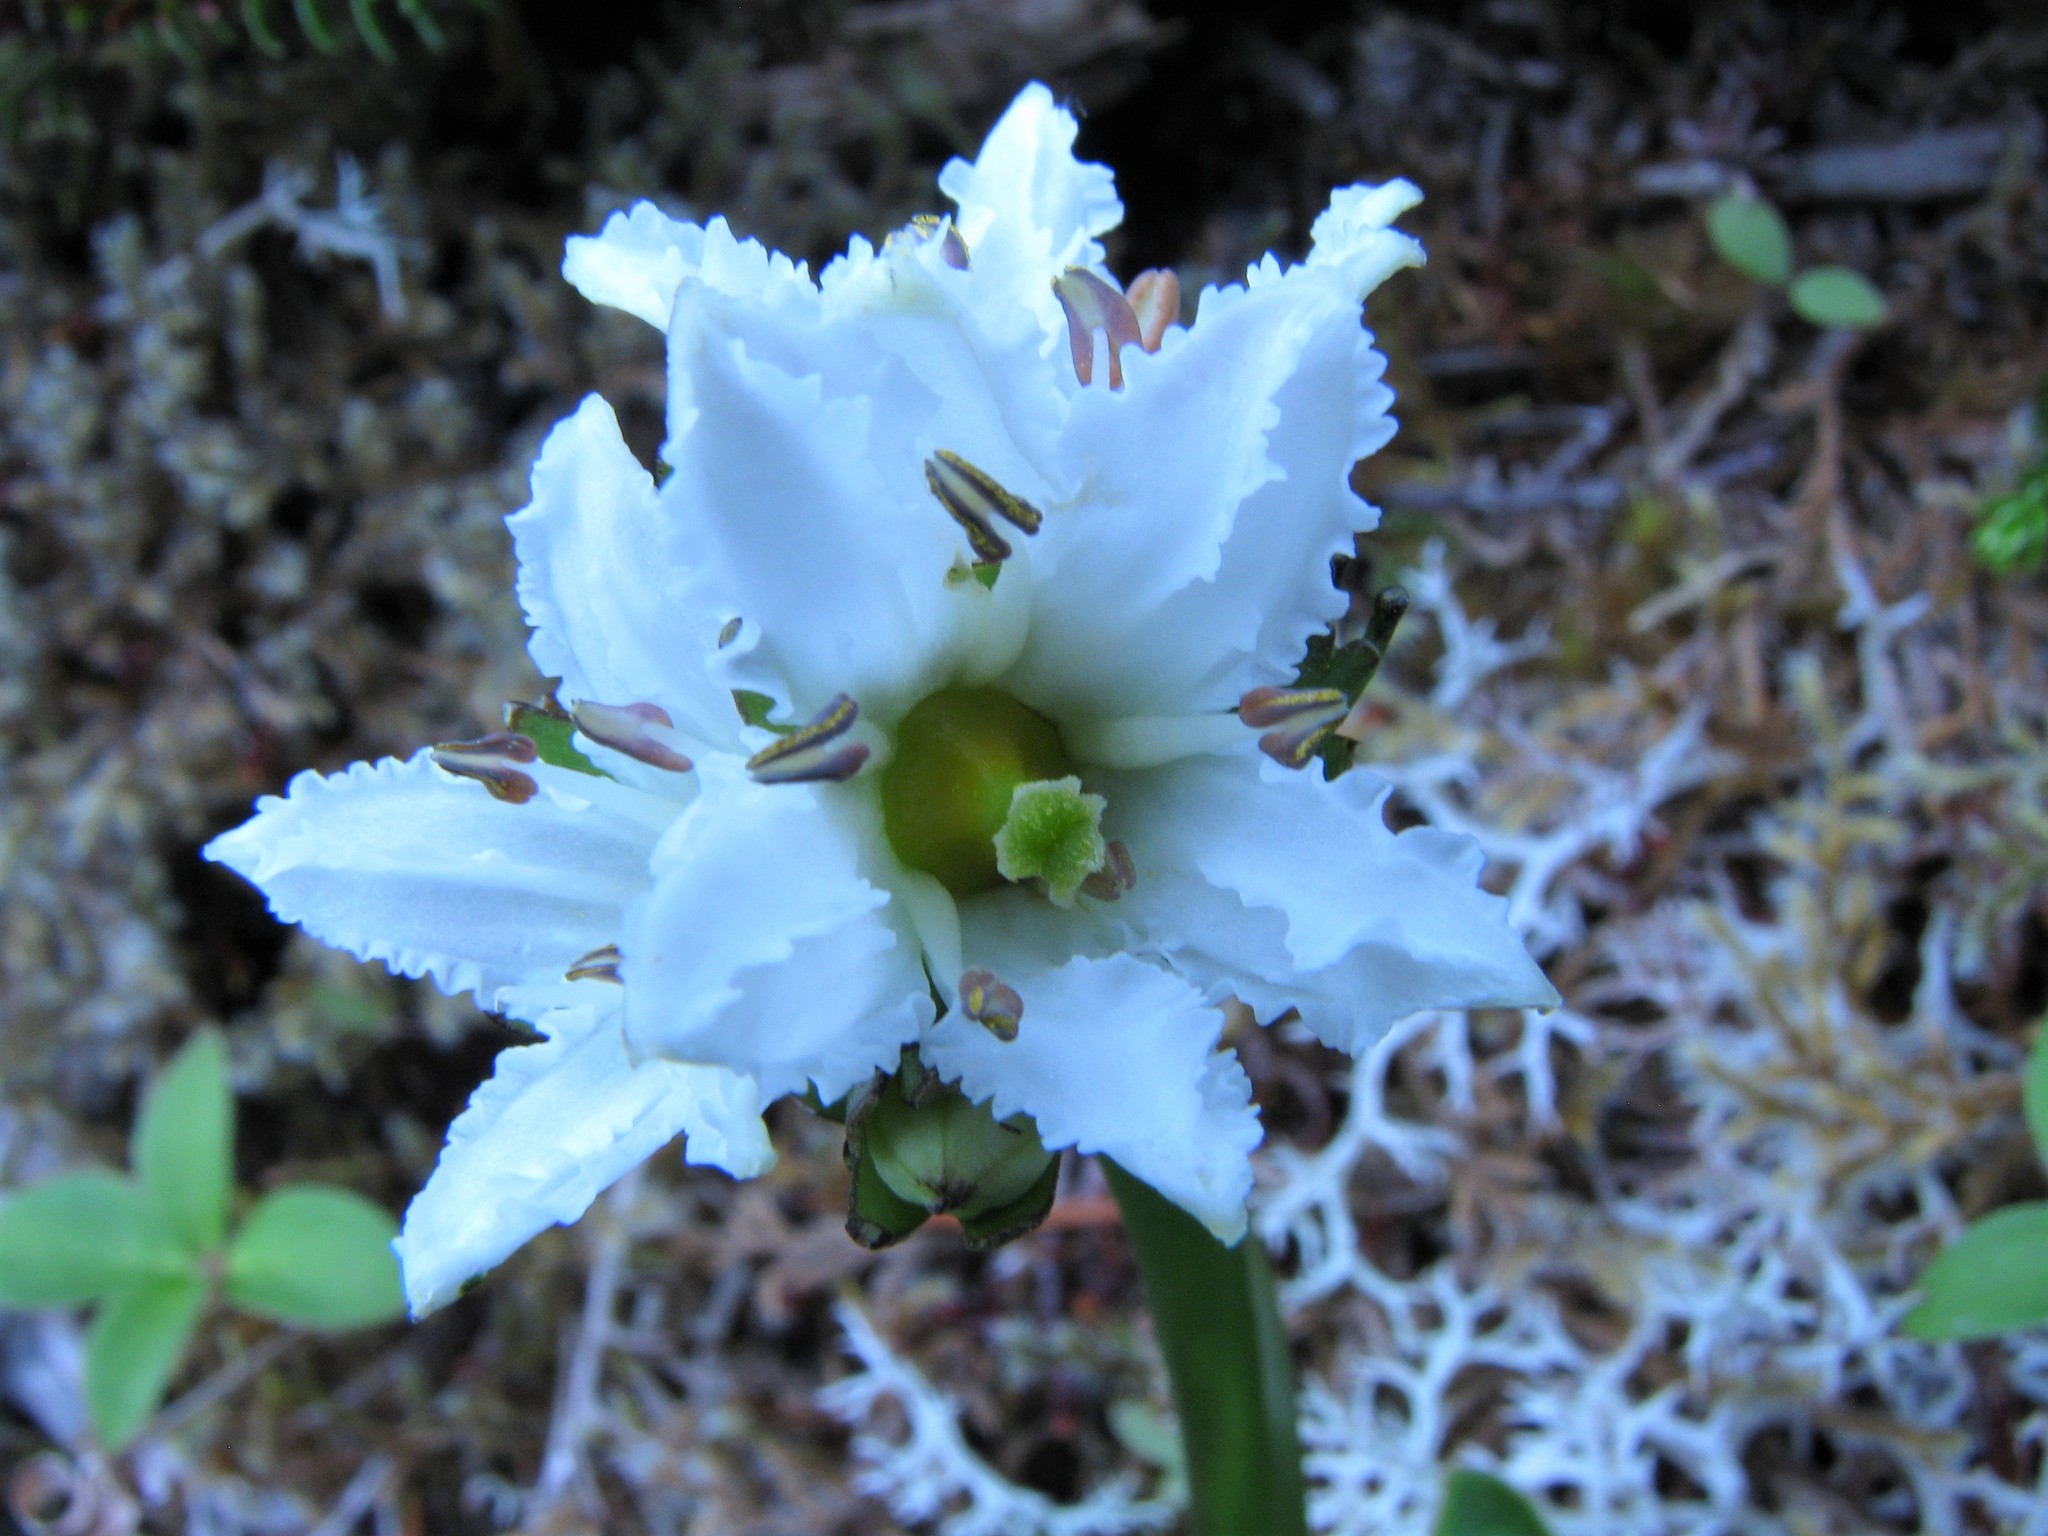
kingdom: Plantae
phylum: Tracheophyta
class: Magnoliopsida
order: Asterales
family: Menyanthaceae
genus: Nephrophyllidium
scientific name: Nephrophyllidium crista-galli
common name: Deer-cabbage
